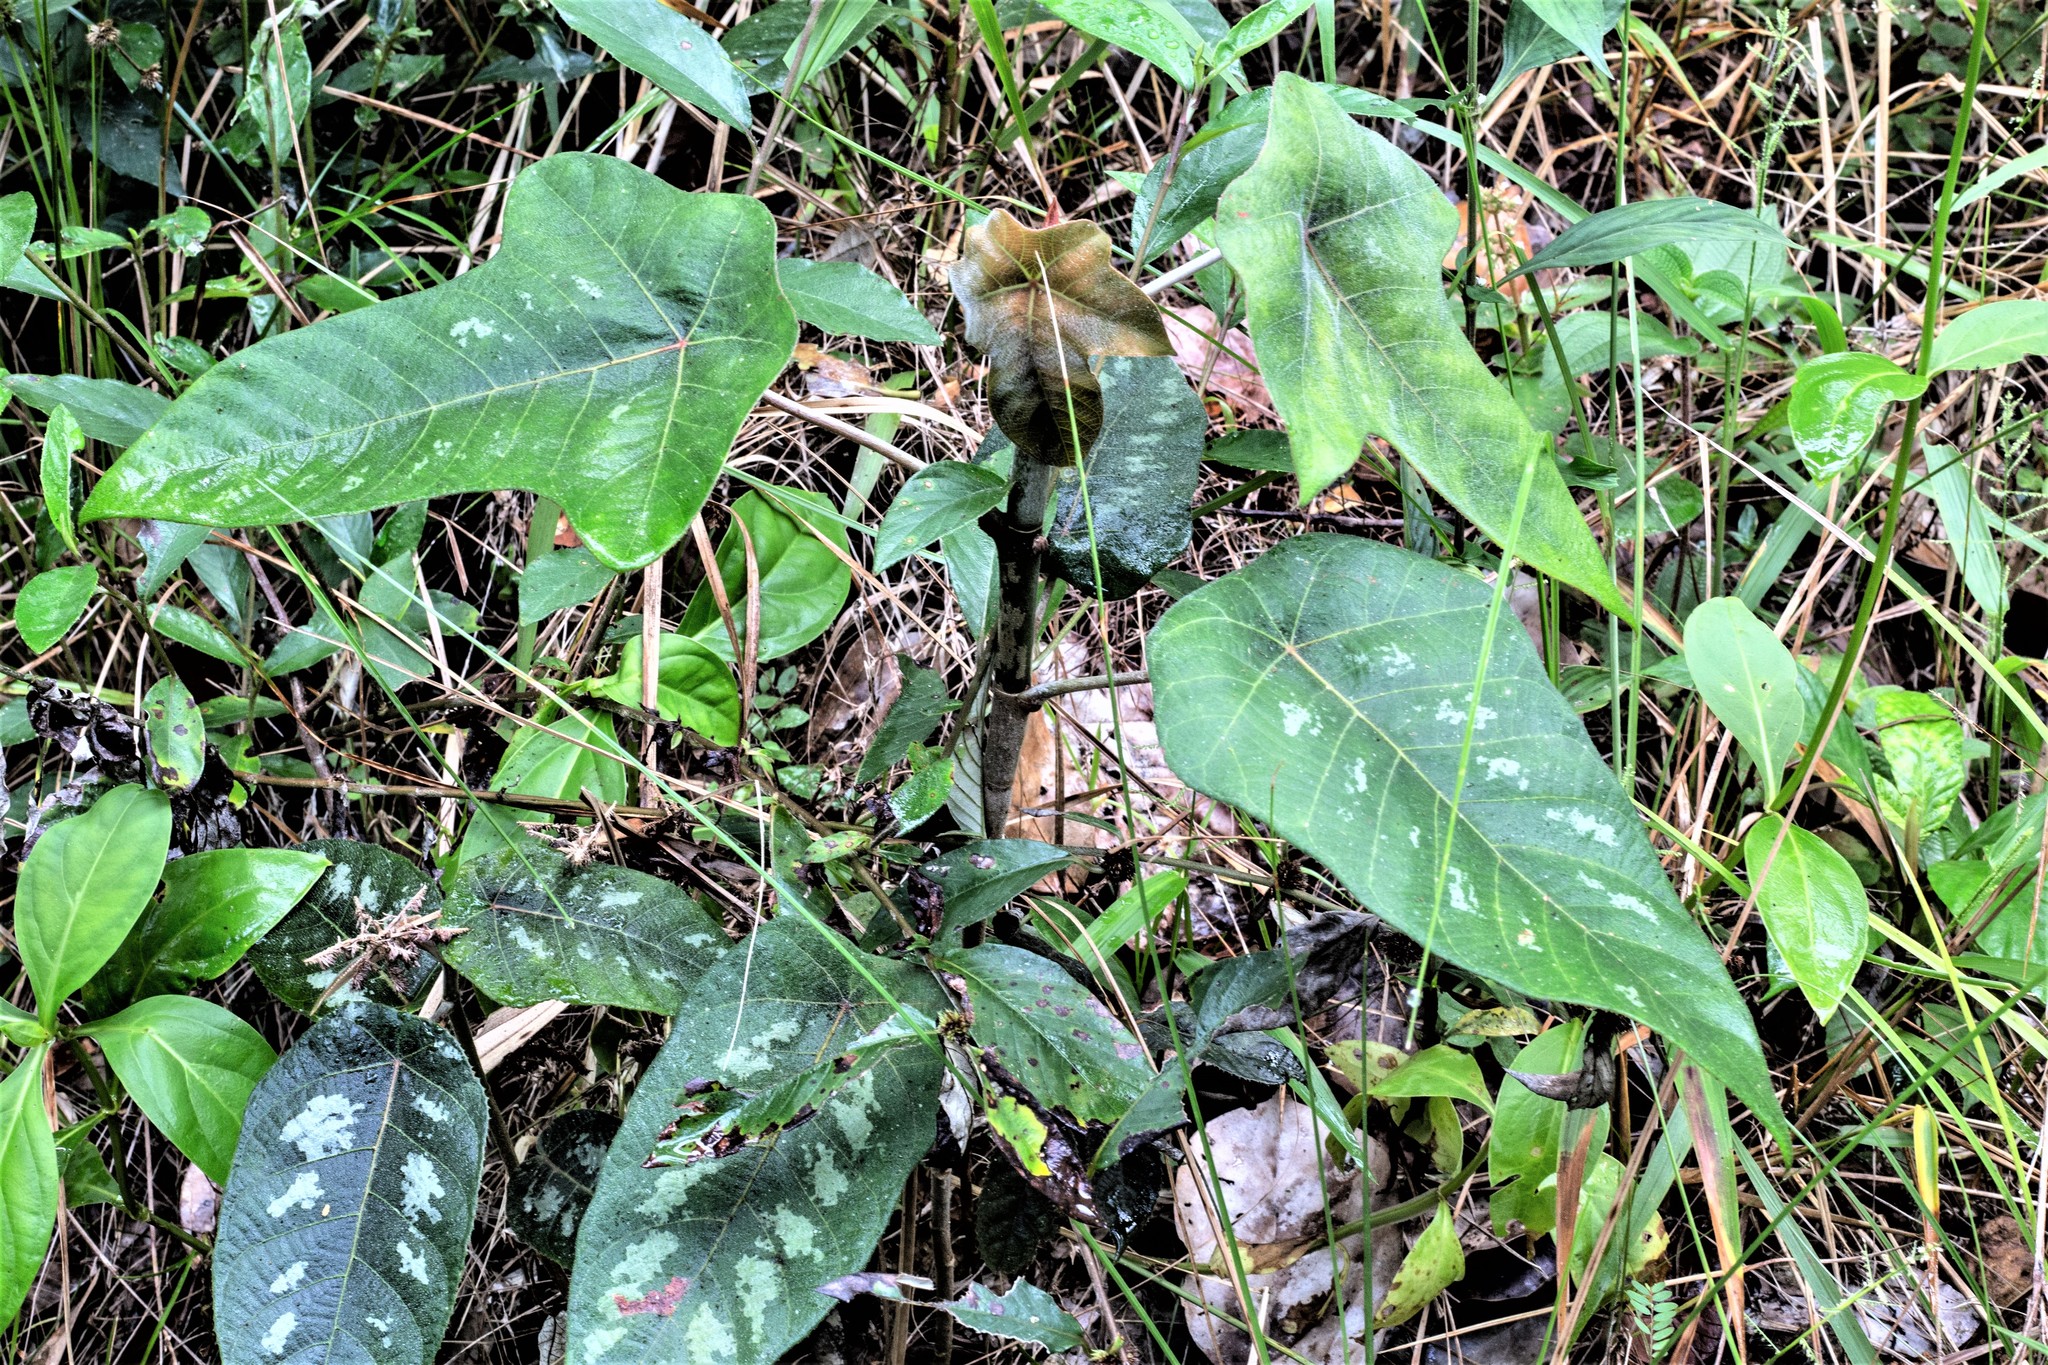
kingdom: Plantae
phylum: Tracheophyta
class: Magnoliopsida
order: Rosales
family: Urticaceae
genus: Cecropia
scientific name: Cecropia obtusa
